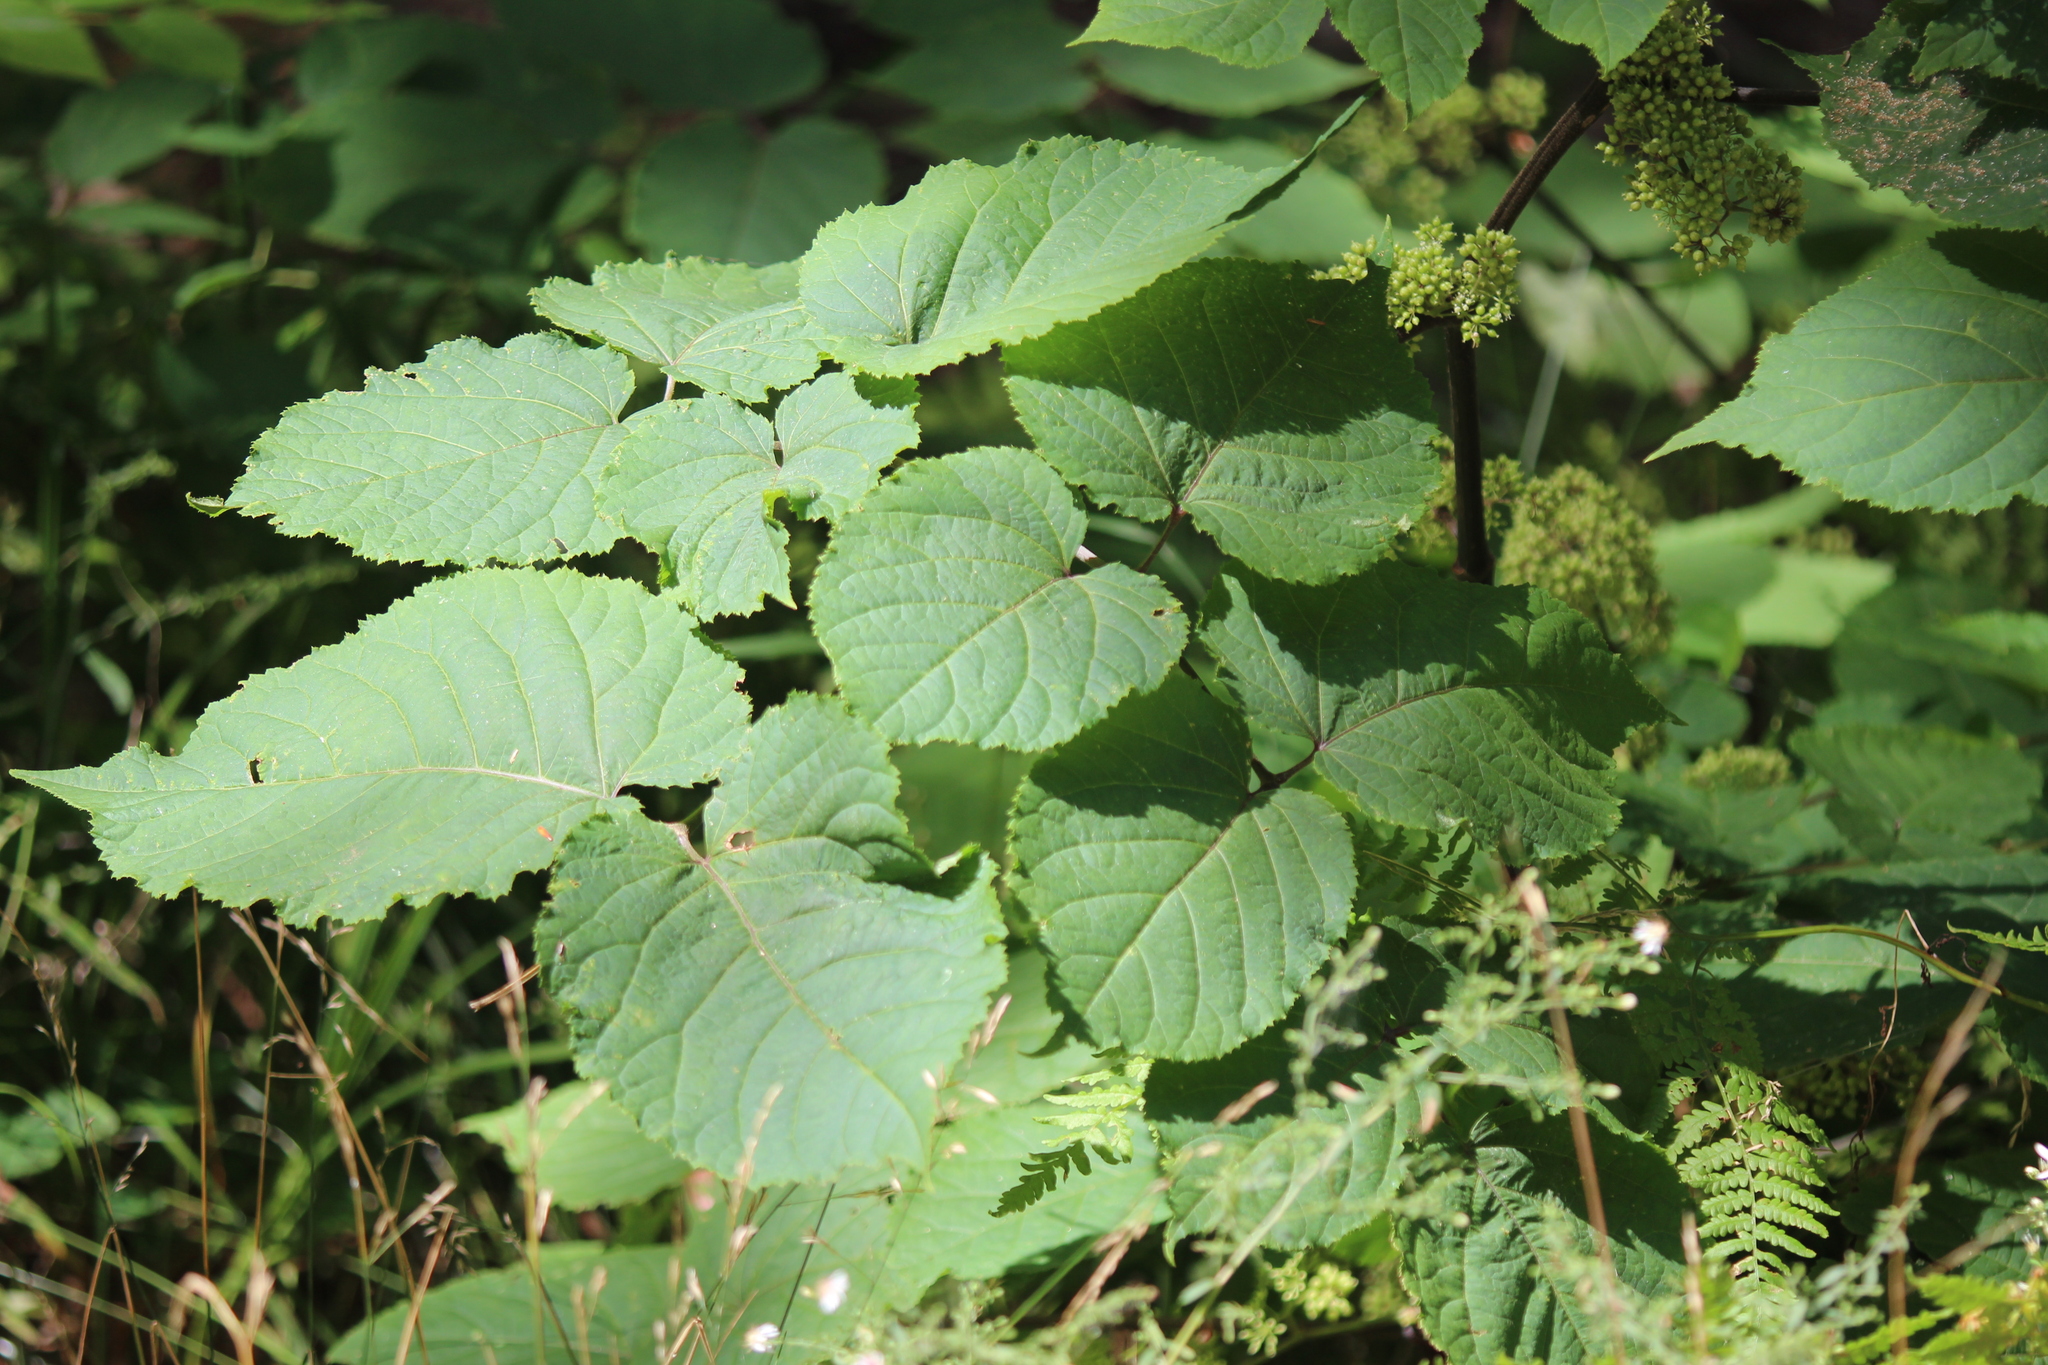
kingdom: Plantae
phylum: Tracheophyta
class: Magnoliopsida
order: Apiales
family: Araliaceae
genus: Aralia
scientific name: Aralia racemosa
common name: American-spikenard
